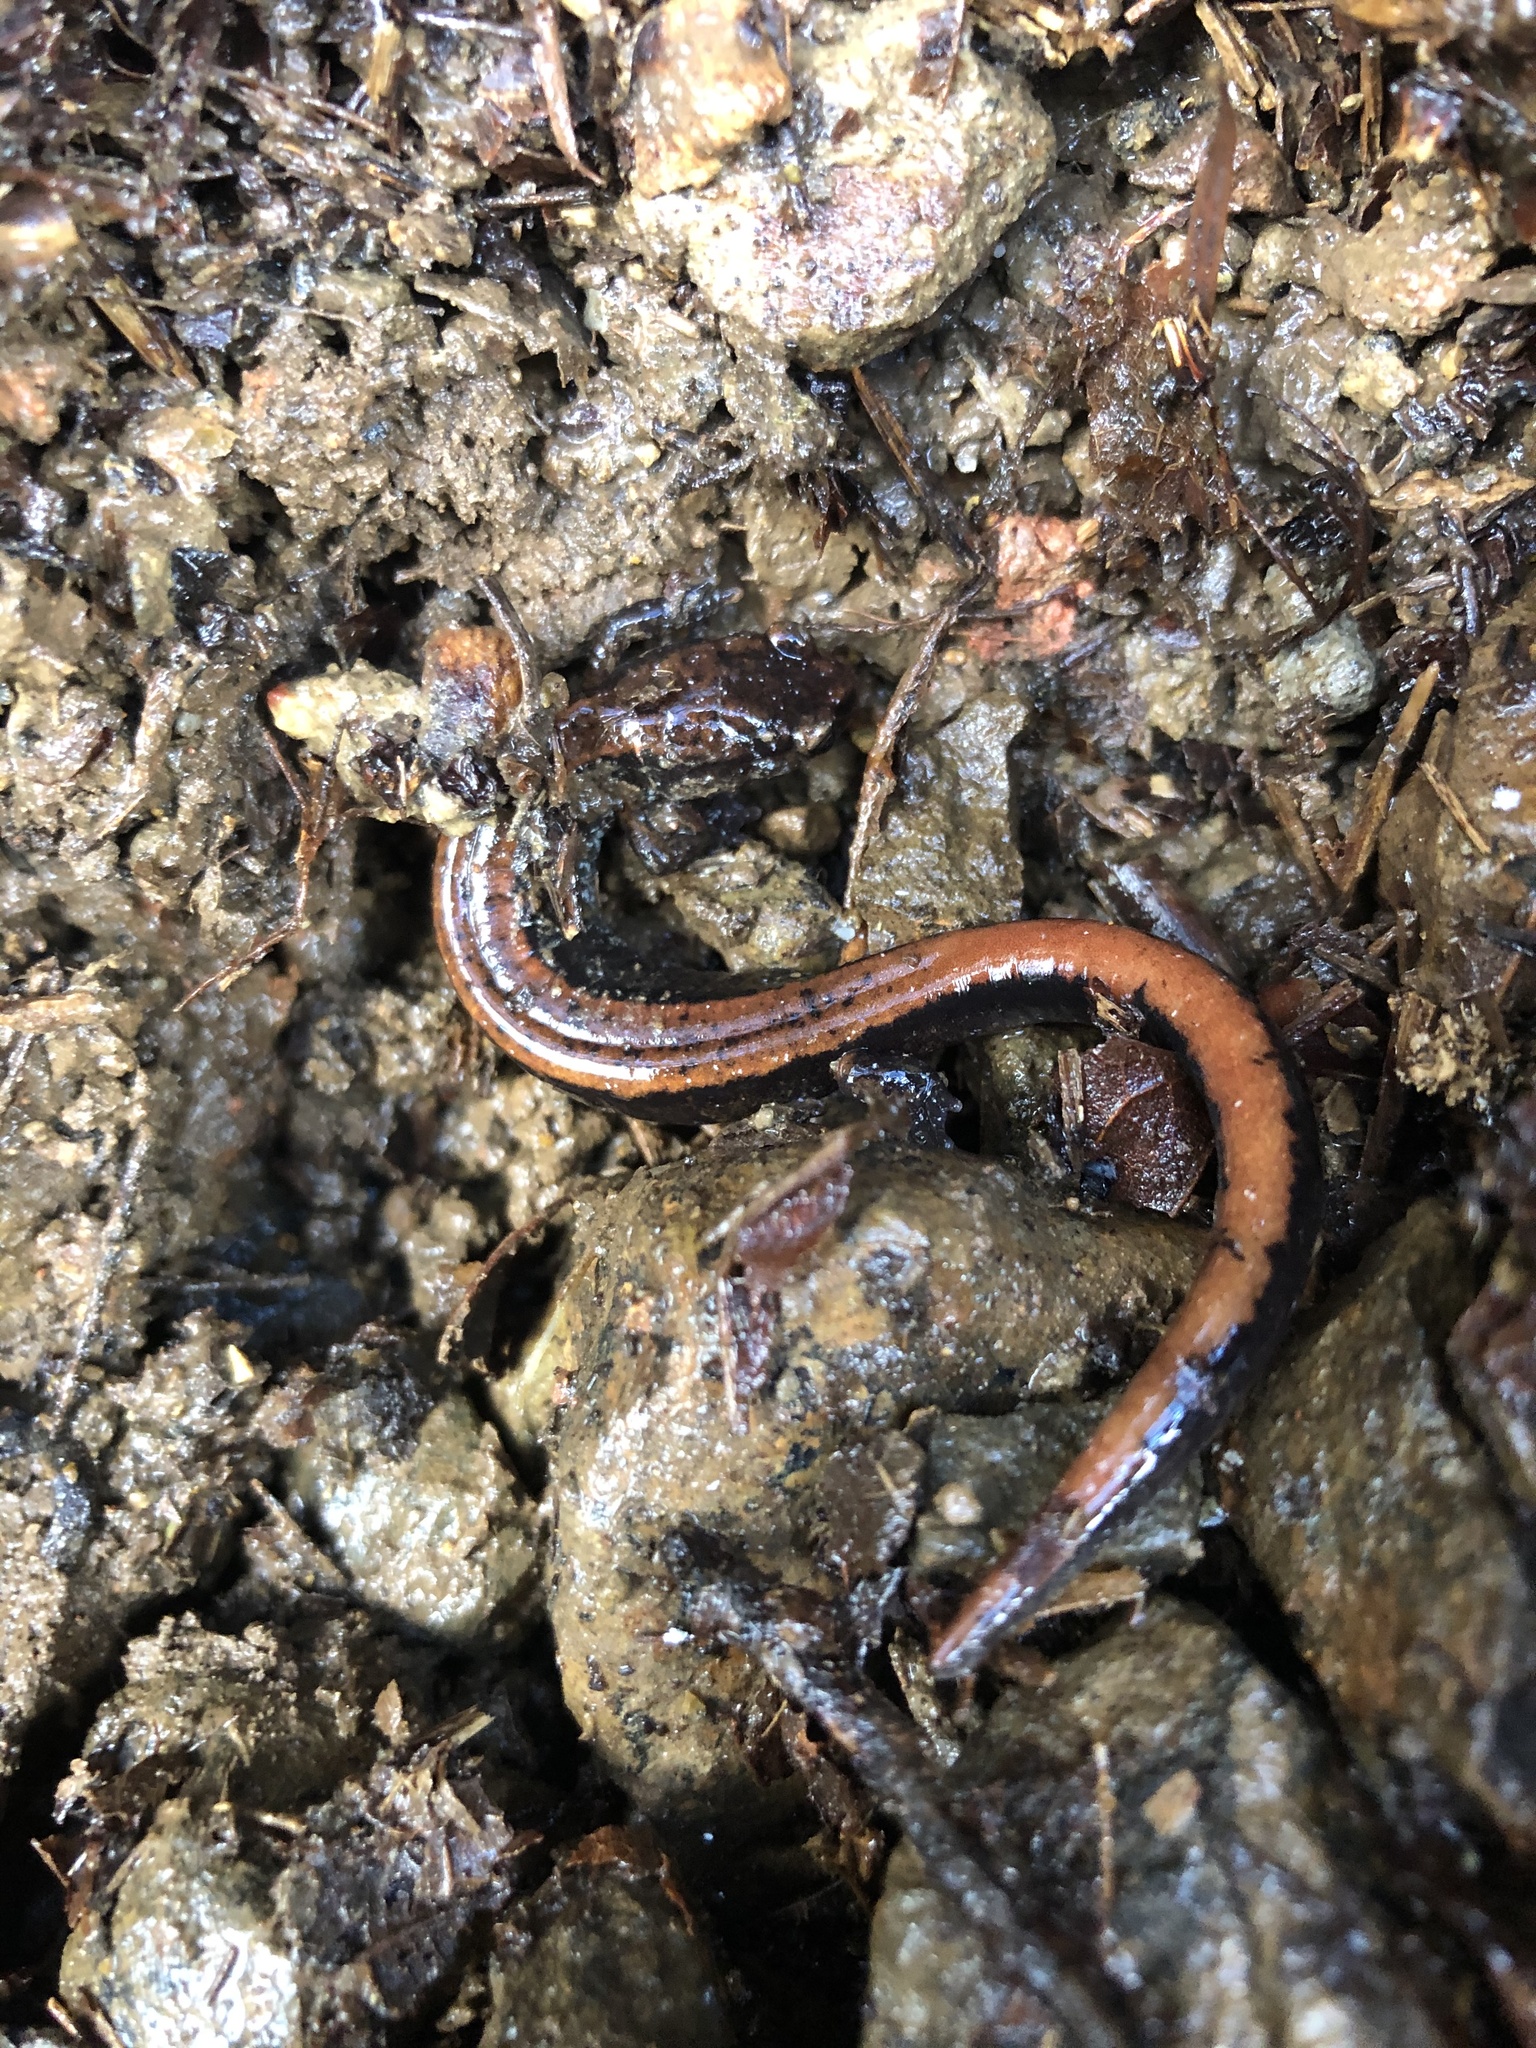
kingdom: Animalia
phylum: Chordata
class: Amphibia
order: Caudata
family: Plethodontidae
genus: Plethodon
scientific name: Plethodon vehiculum
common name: Western red-backed salamander
